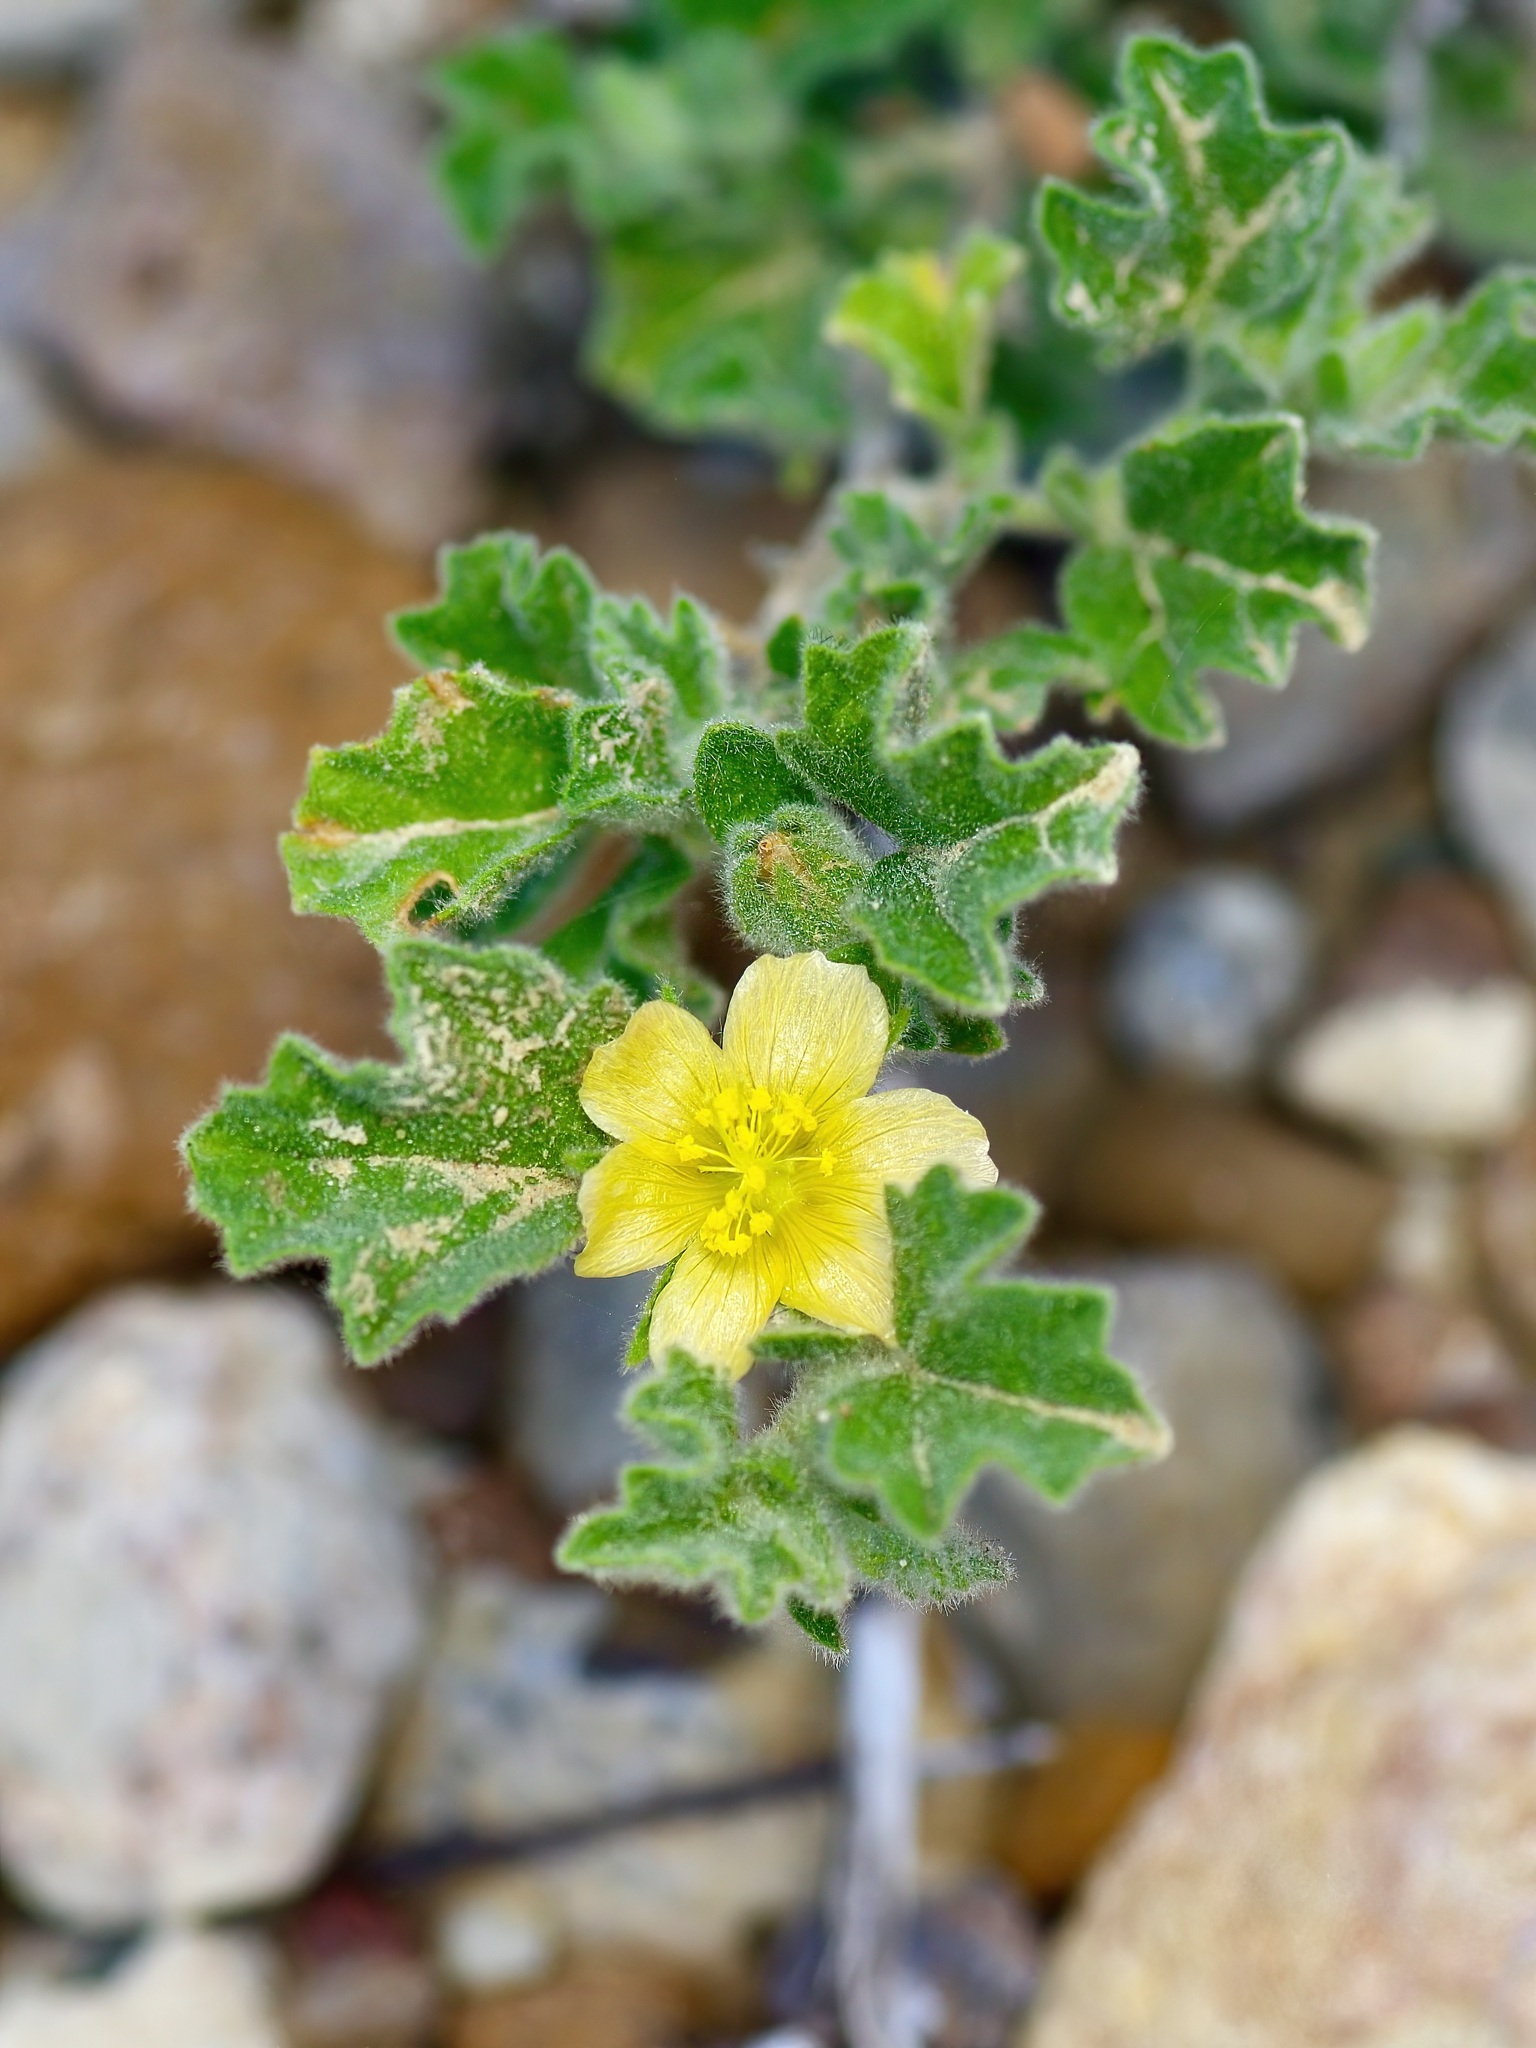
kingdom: Plantae
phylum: Tracheophyta
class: Magnoliopsida
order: Malvales
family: Malvaceae
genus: Billieturnera
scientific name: Billieturnera helleri
